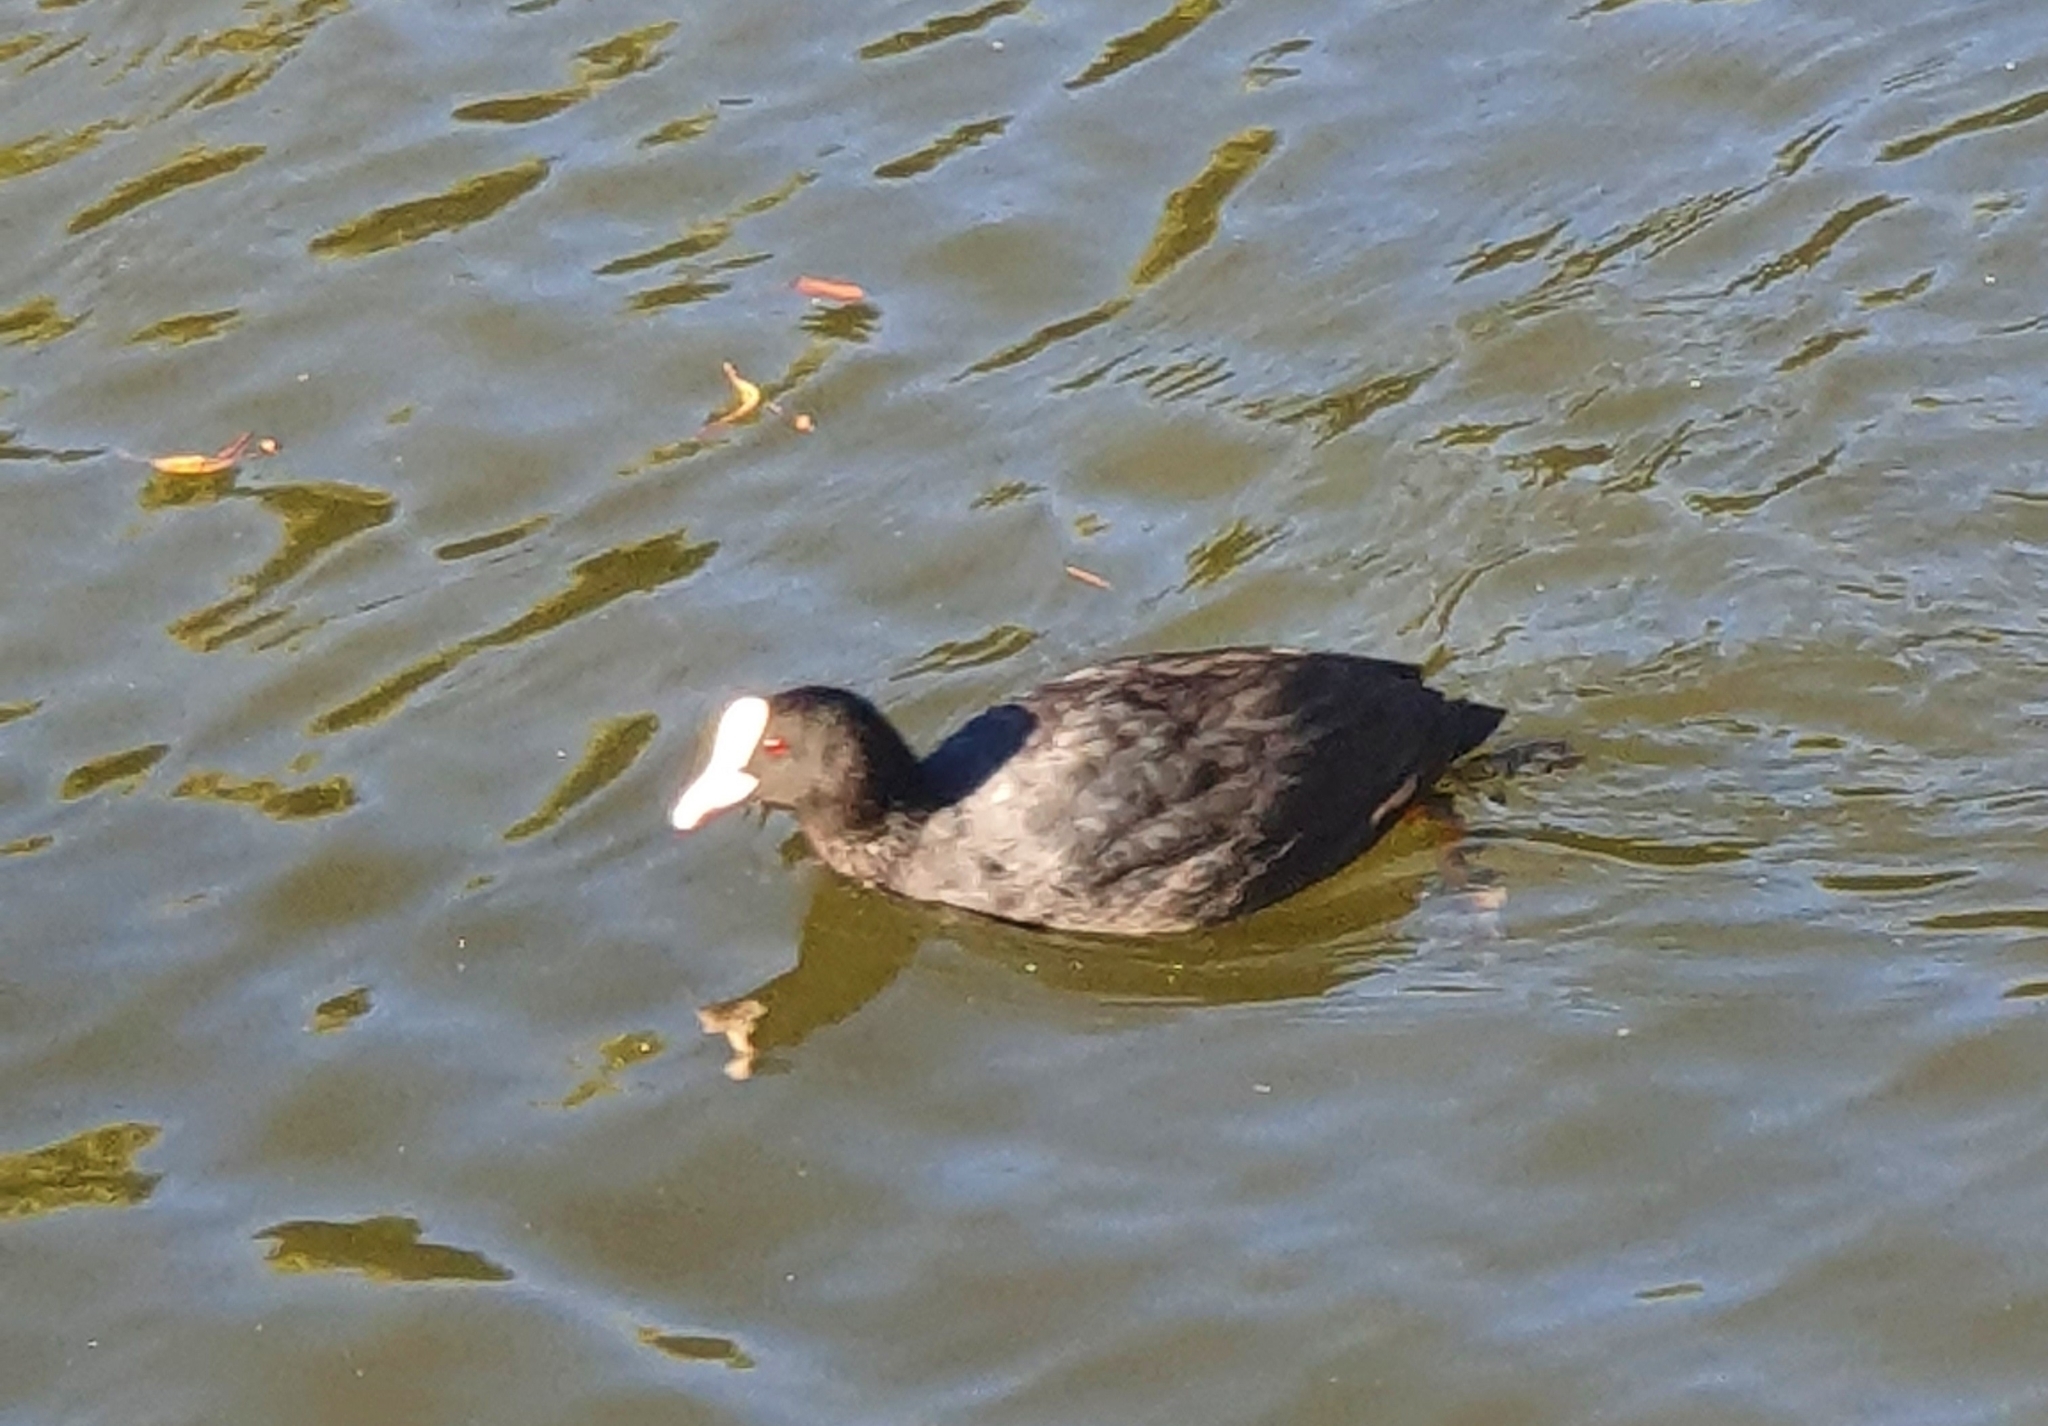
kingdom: Animalia
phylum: Chordata
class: Aves
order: Gruiformes
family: Rallidae
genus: Fulica
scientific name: Fulica atra
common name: Eurasian coot
